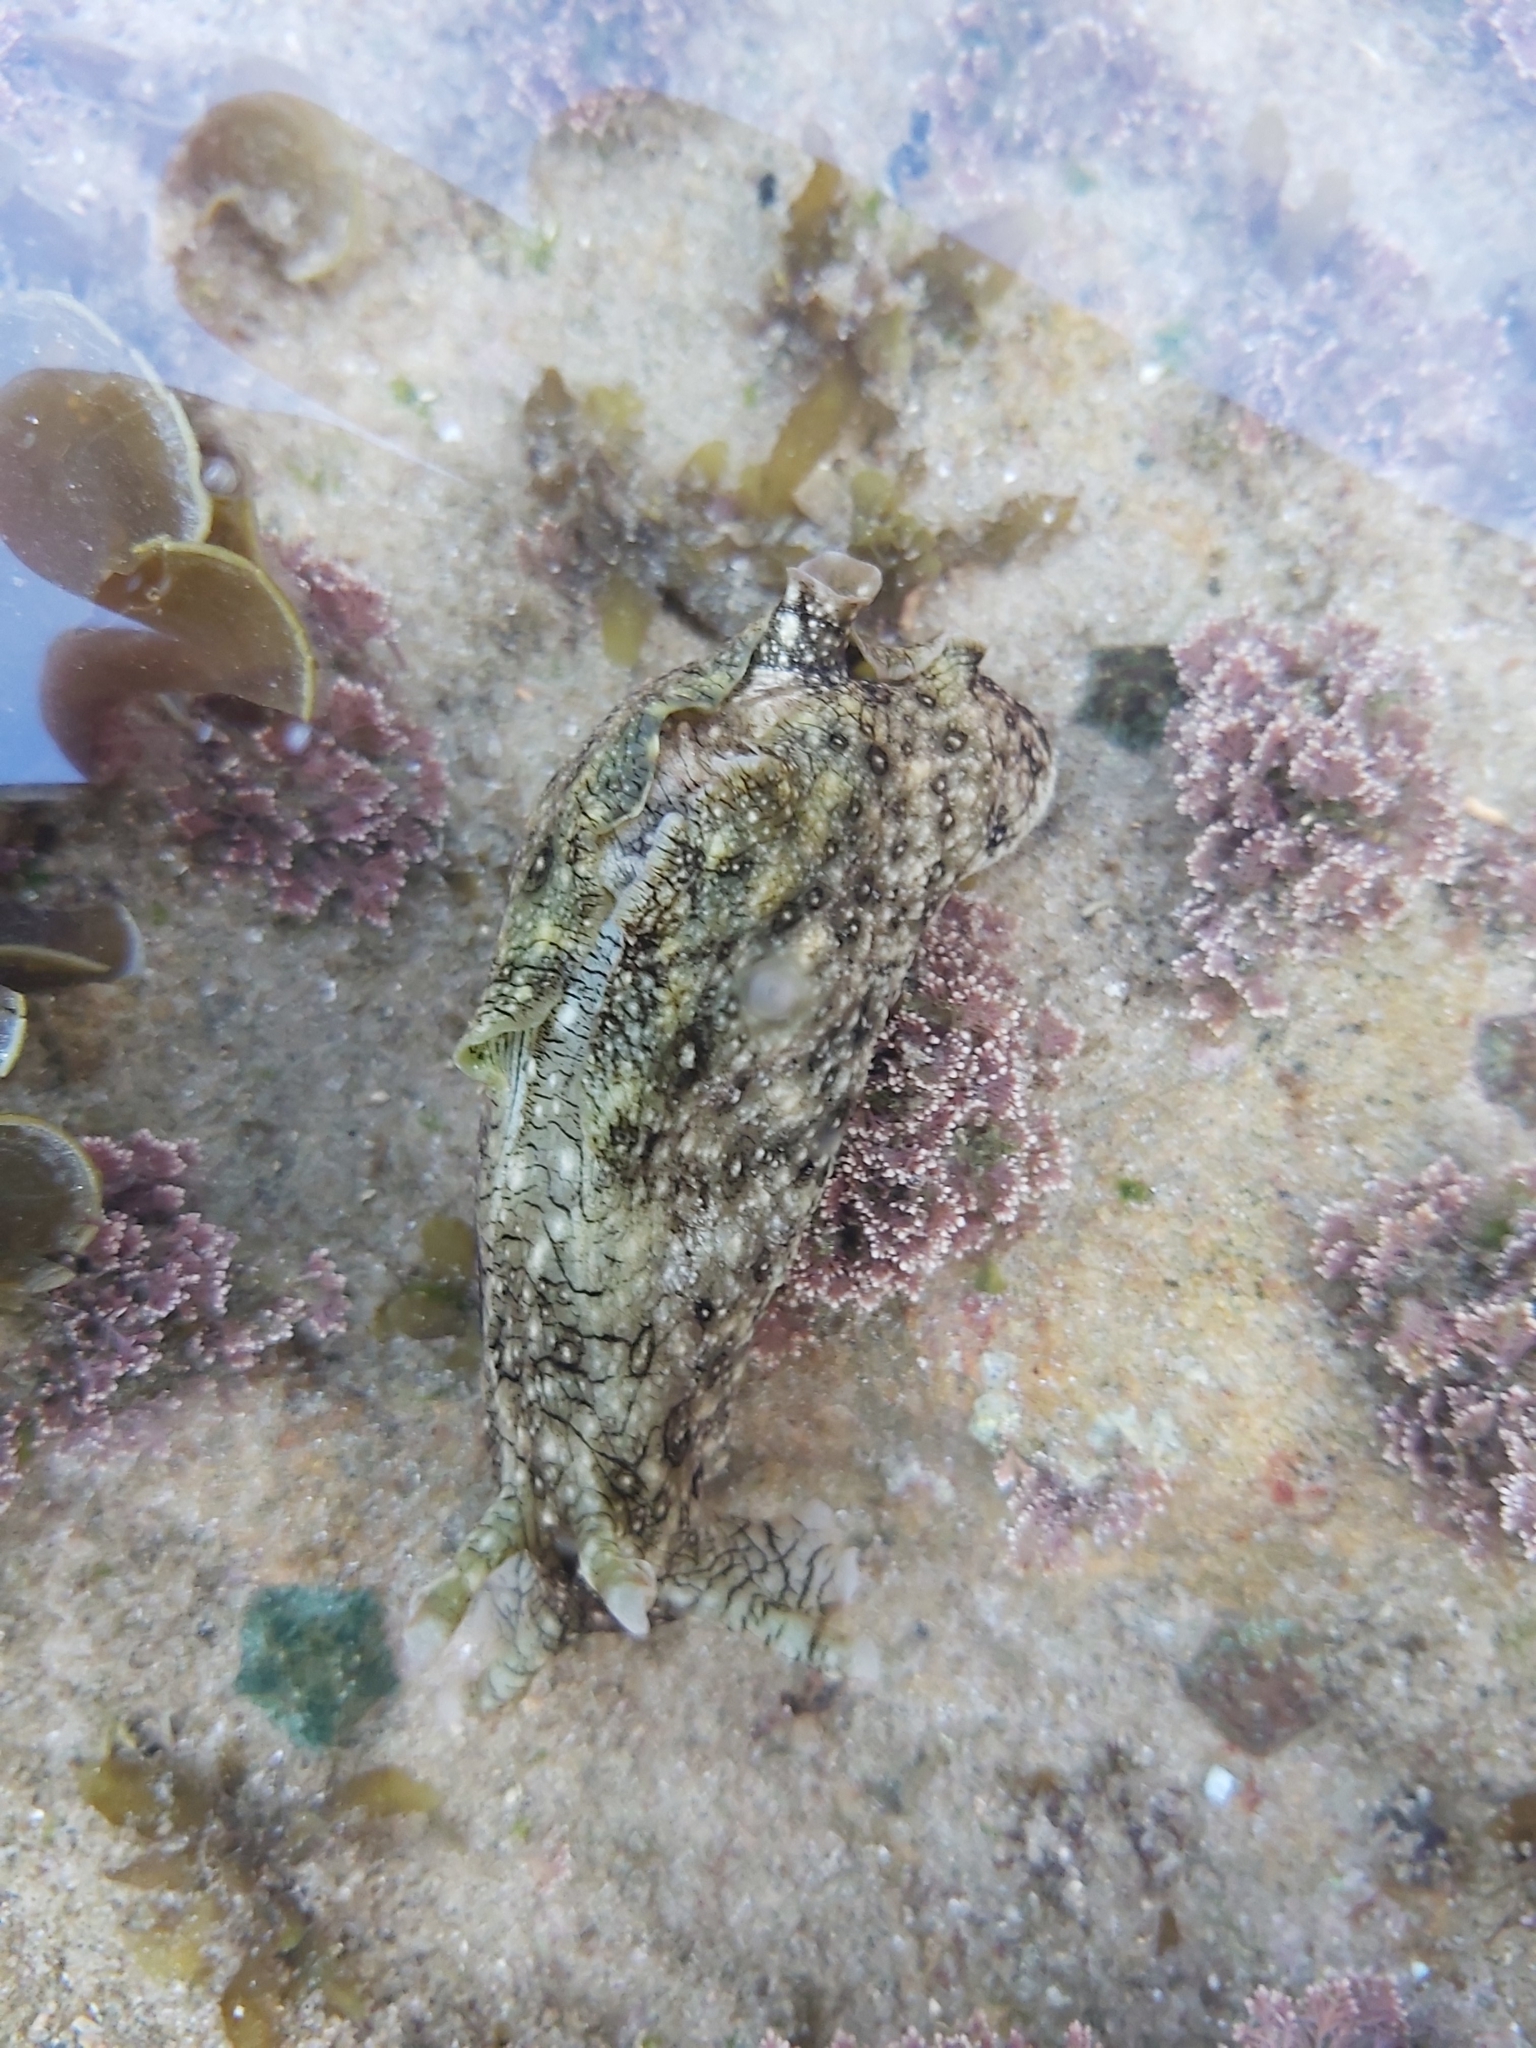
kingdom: Animalia
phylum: Mollusca
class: Gastropoda
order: Aplysiida
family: Aplysiidae
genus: Aplysia
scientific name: Aplysia argus
